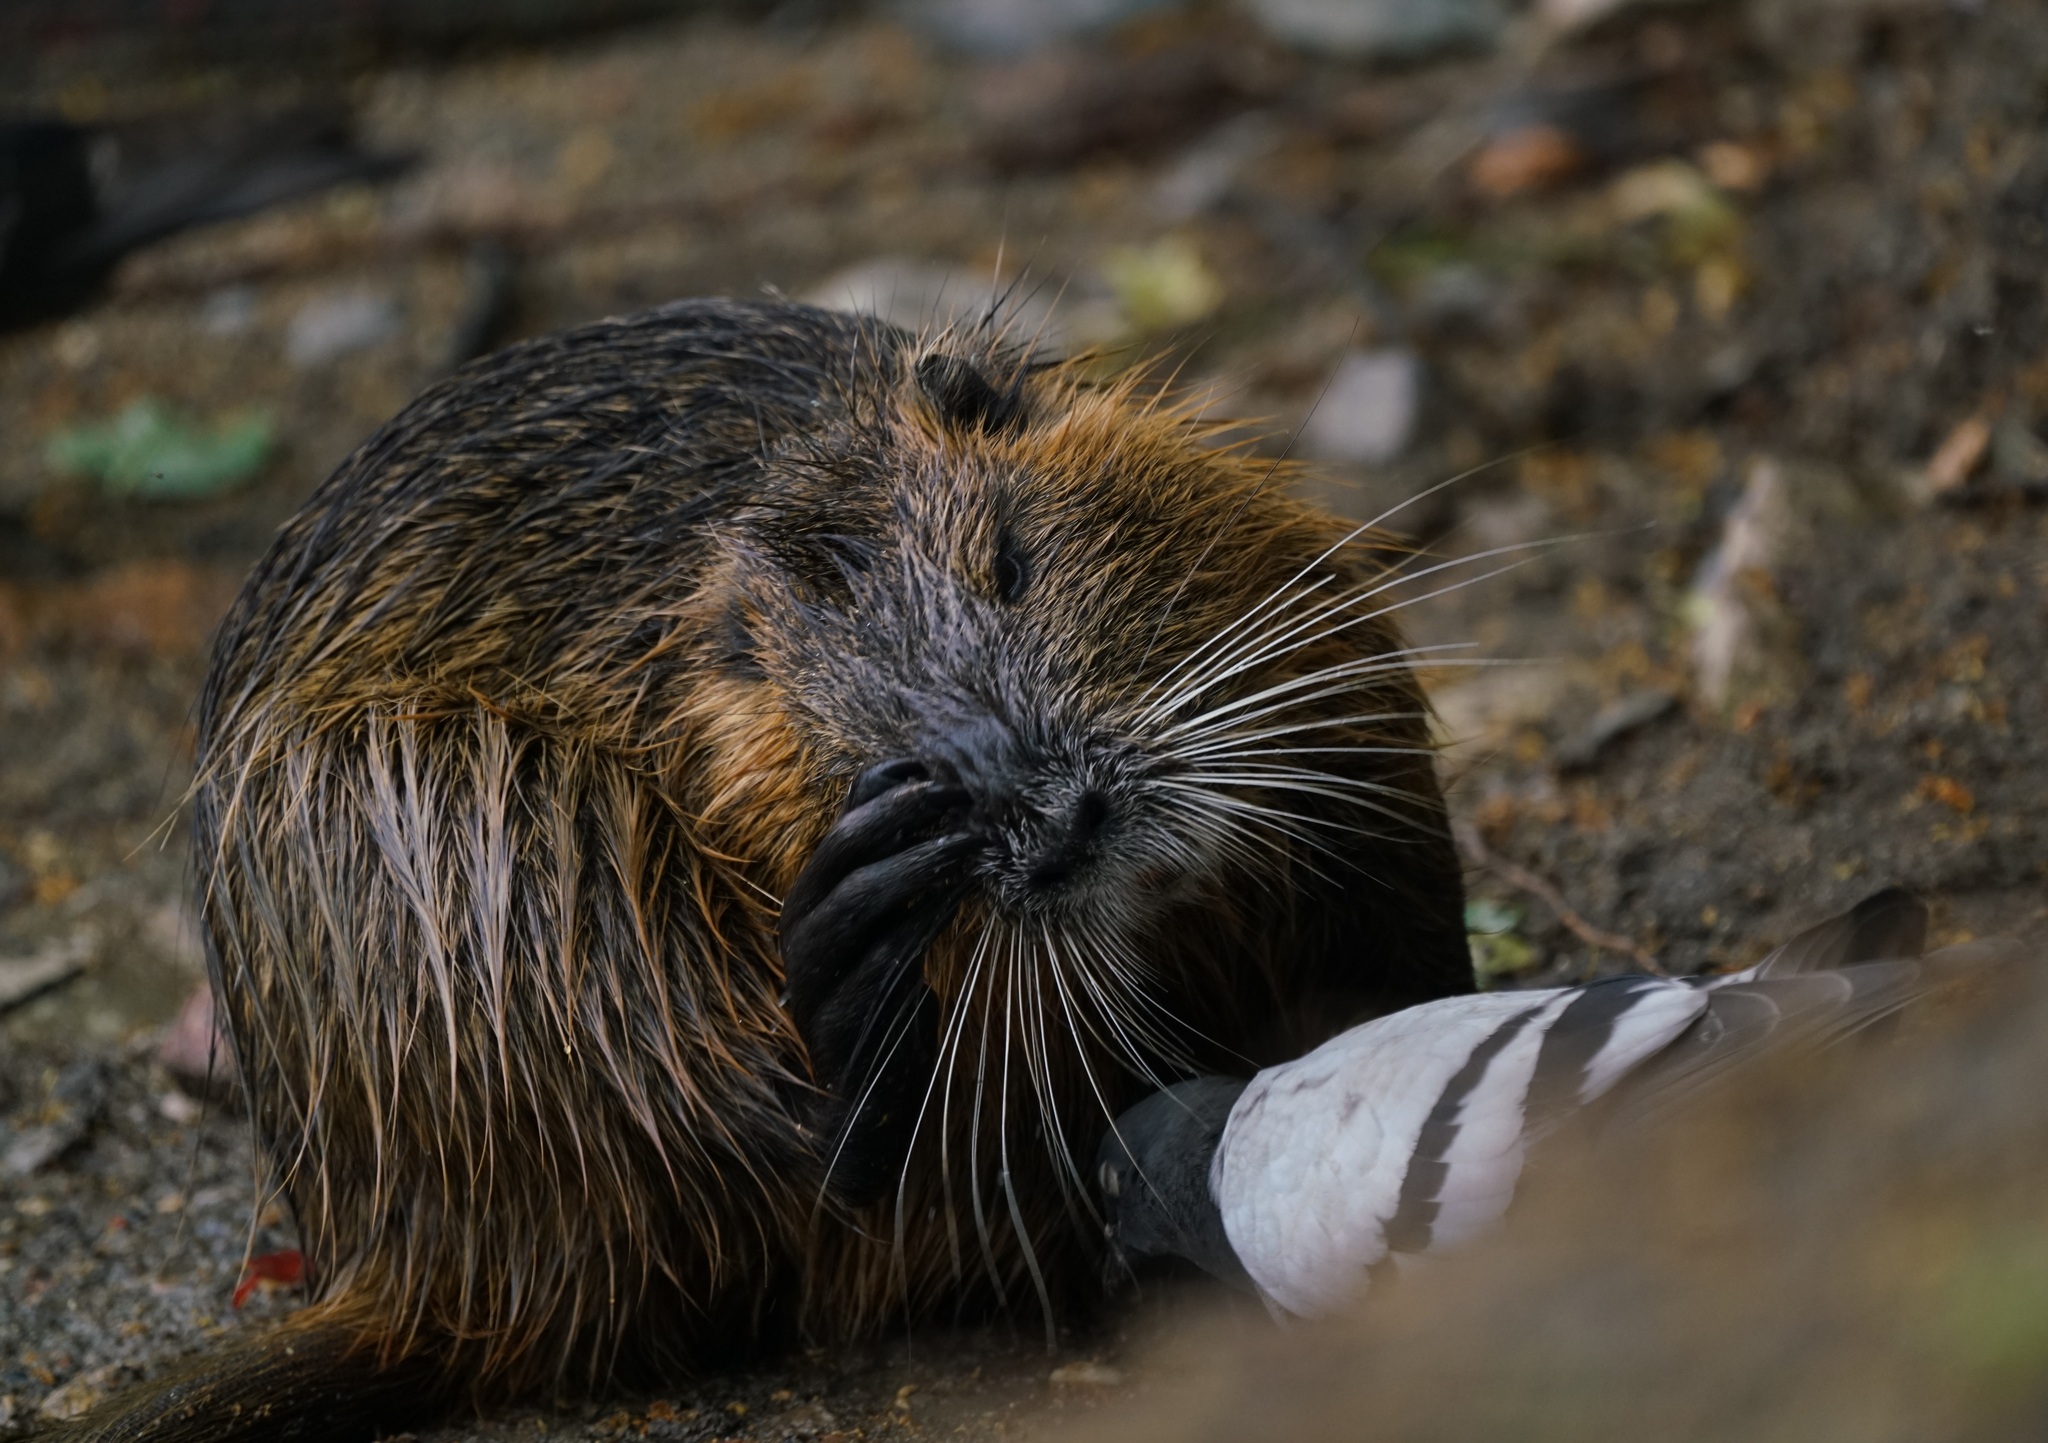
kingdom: Animalia
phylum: Chordata
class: Mammalia
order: Rodentia
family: Myocastoridae
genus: Myocastor
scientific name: Myocastor coypus
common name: Coypu
